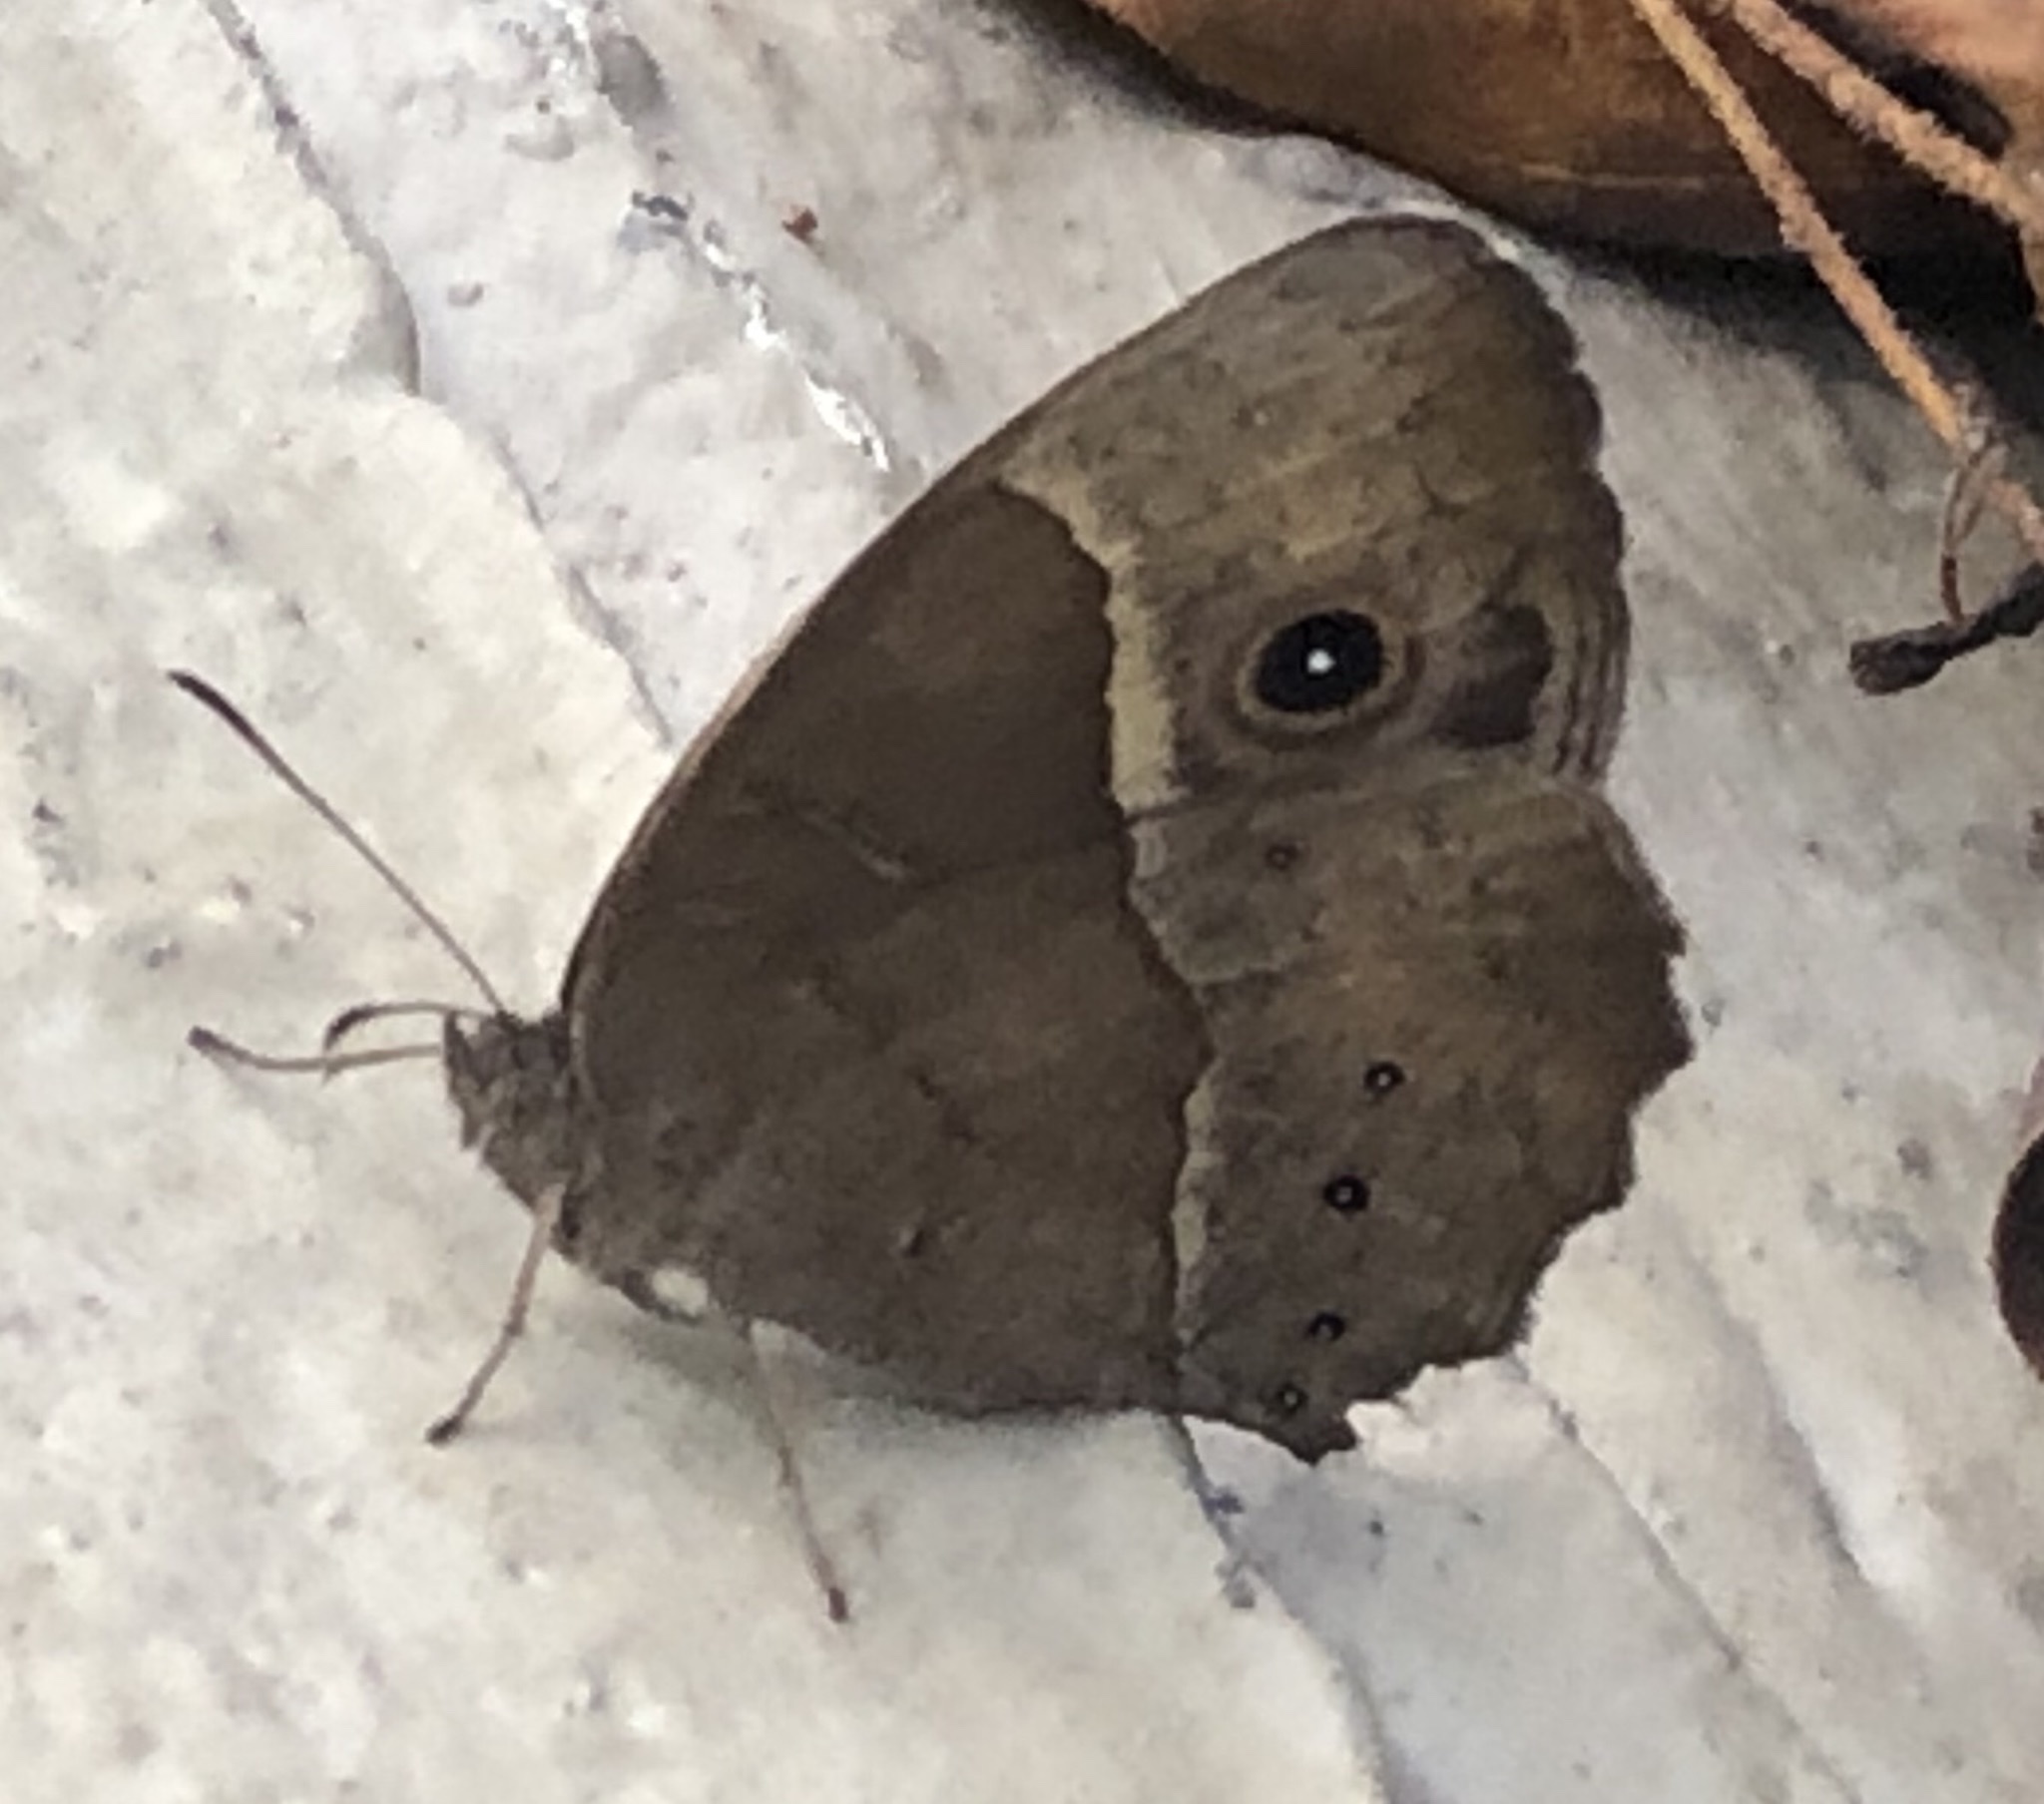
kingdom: Animalia
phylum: Arthropoda
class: Insecta
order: Lepidoptera
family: Nymphalidae
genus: Mycalesis
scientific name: Mycalesis rhacotis
